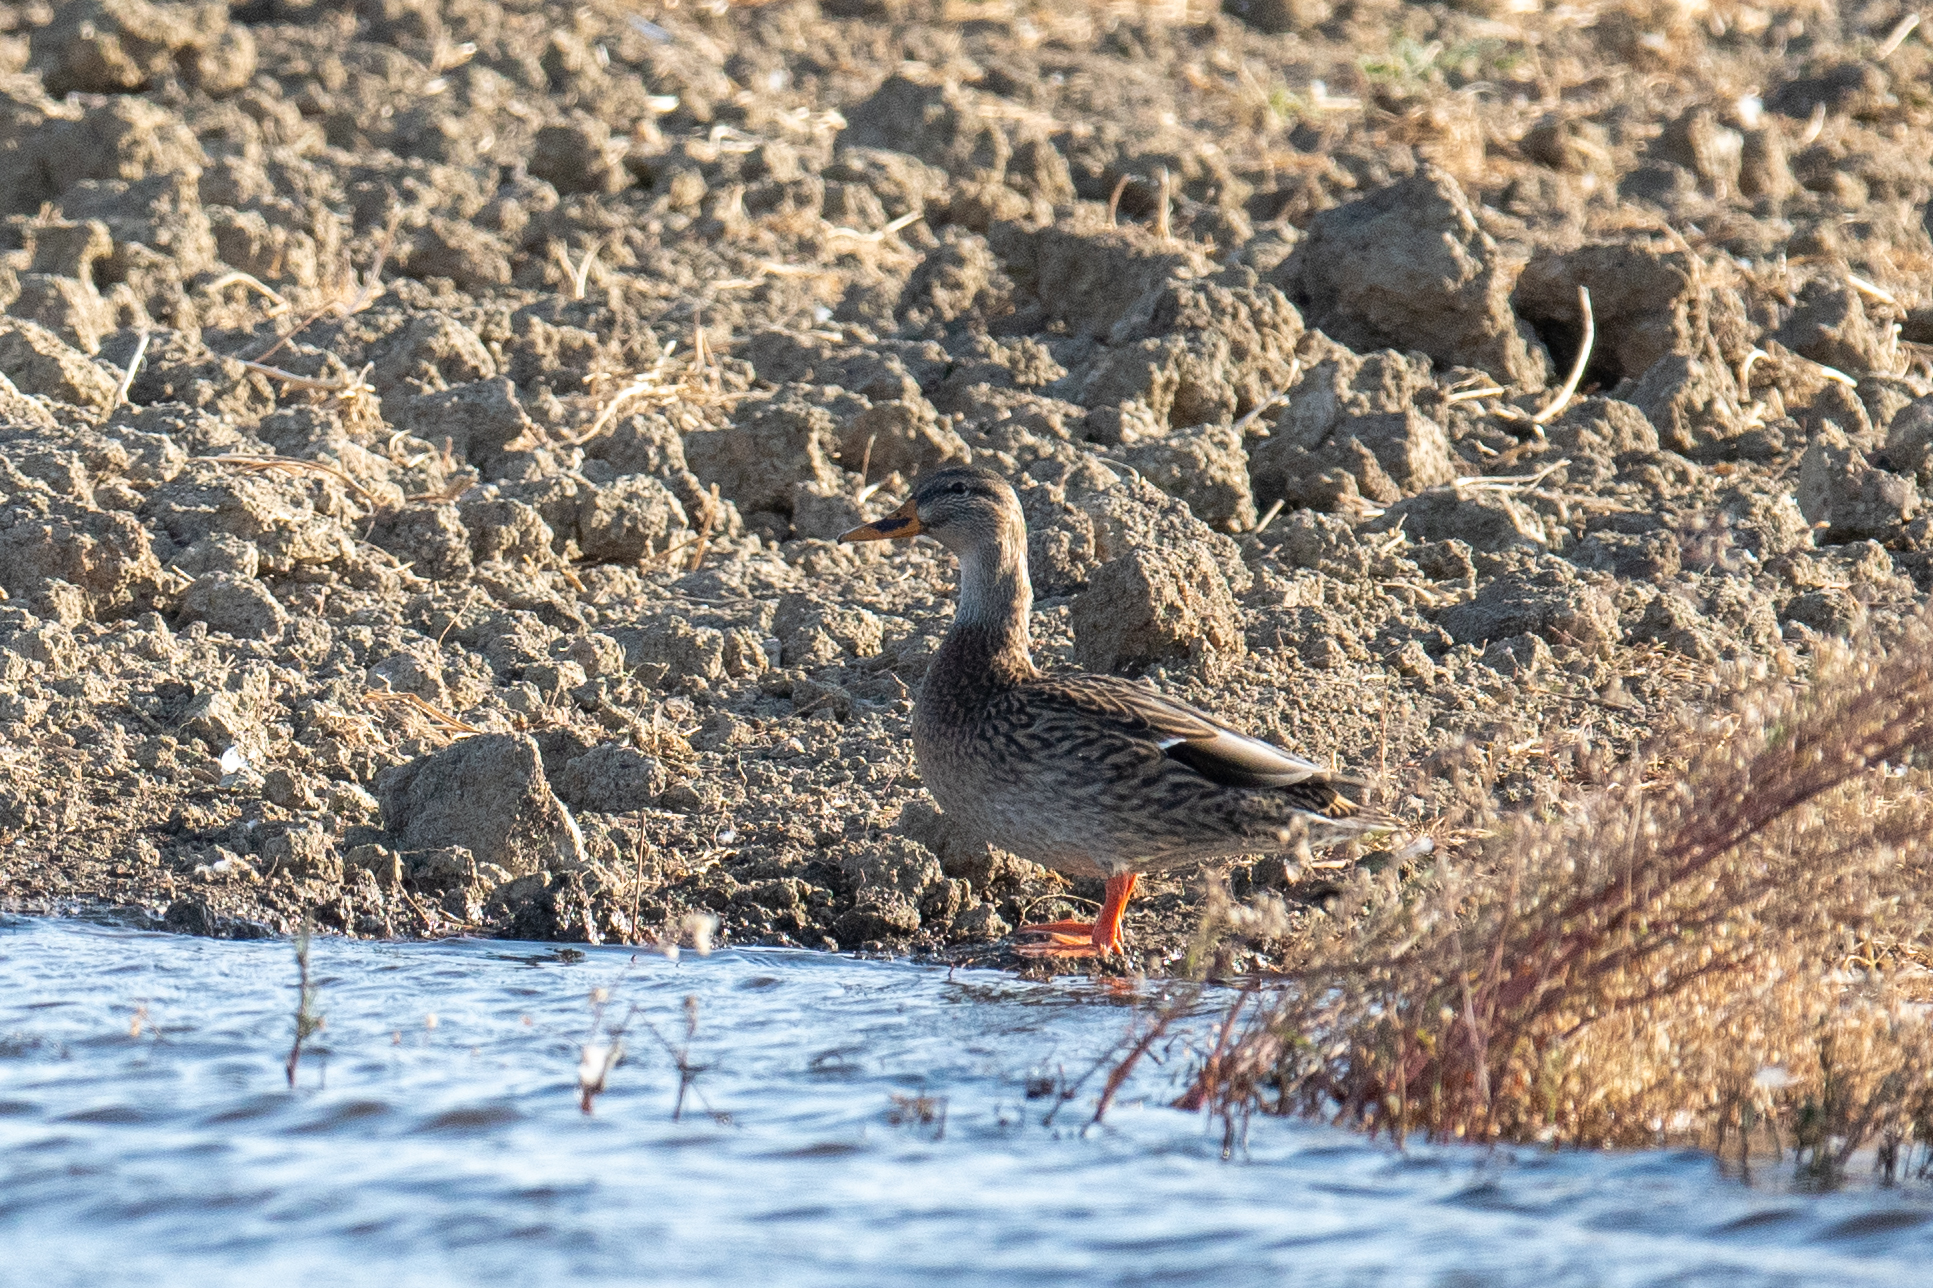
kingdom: Animalia
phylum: Chordata
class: Aves
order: Anseriformes
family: Anatidae
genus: Anas
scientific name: Anas platyrhynchos
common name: Mallard
